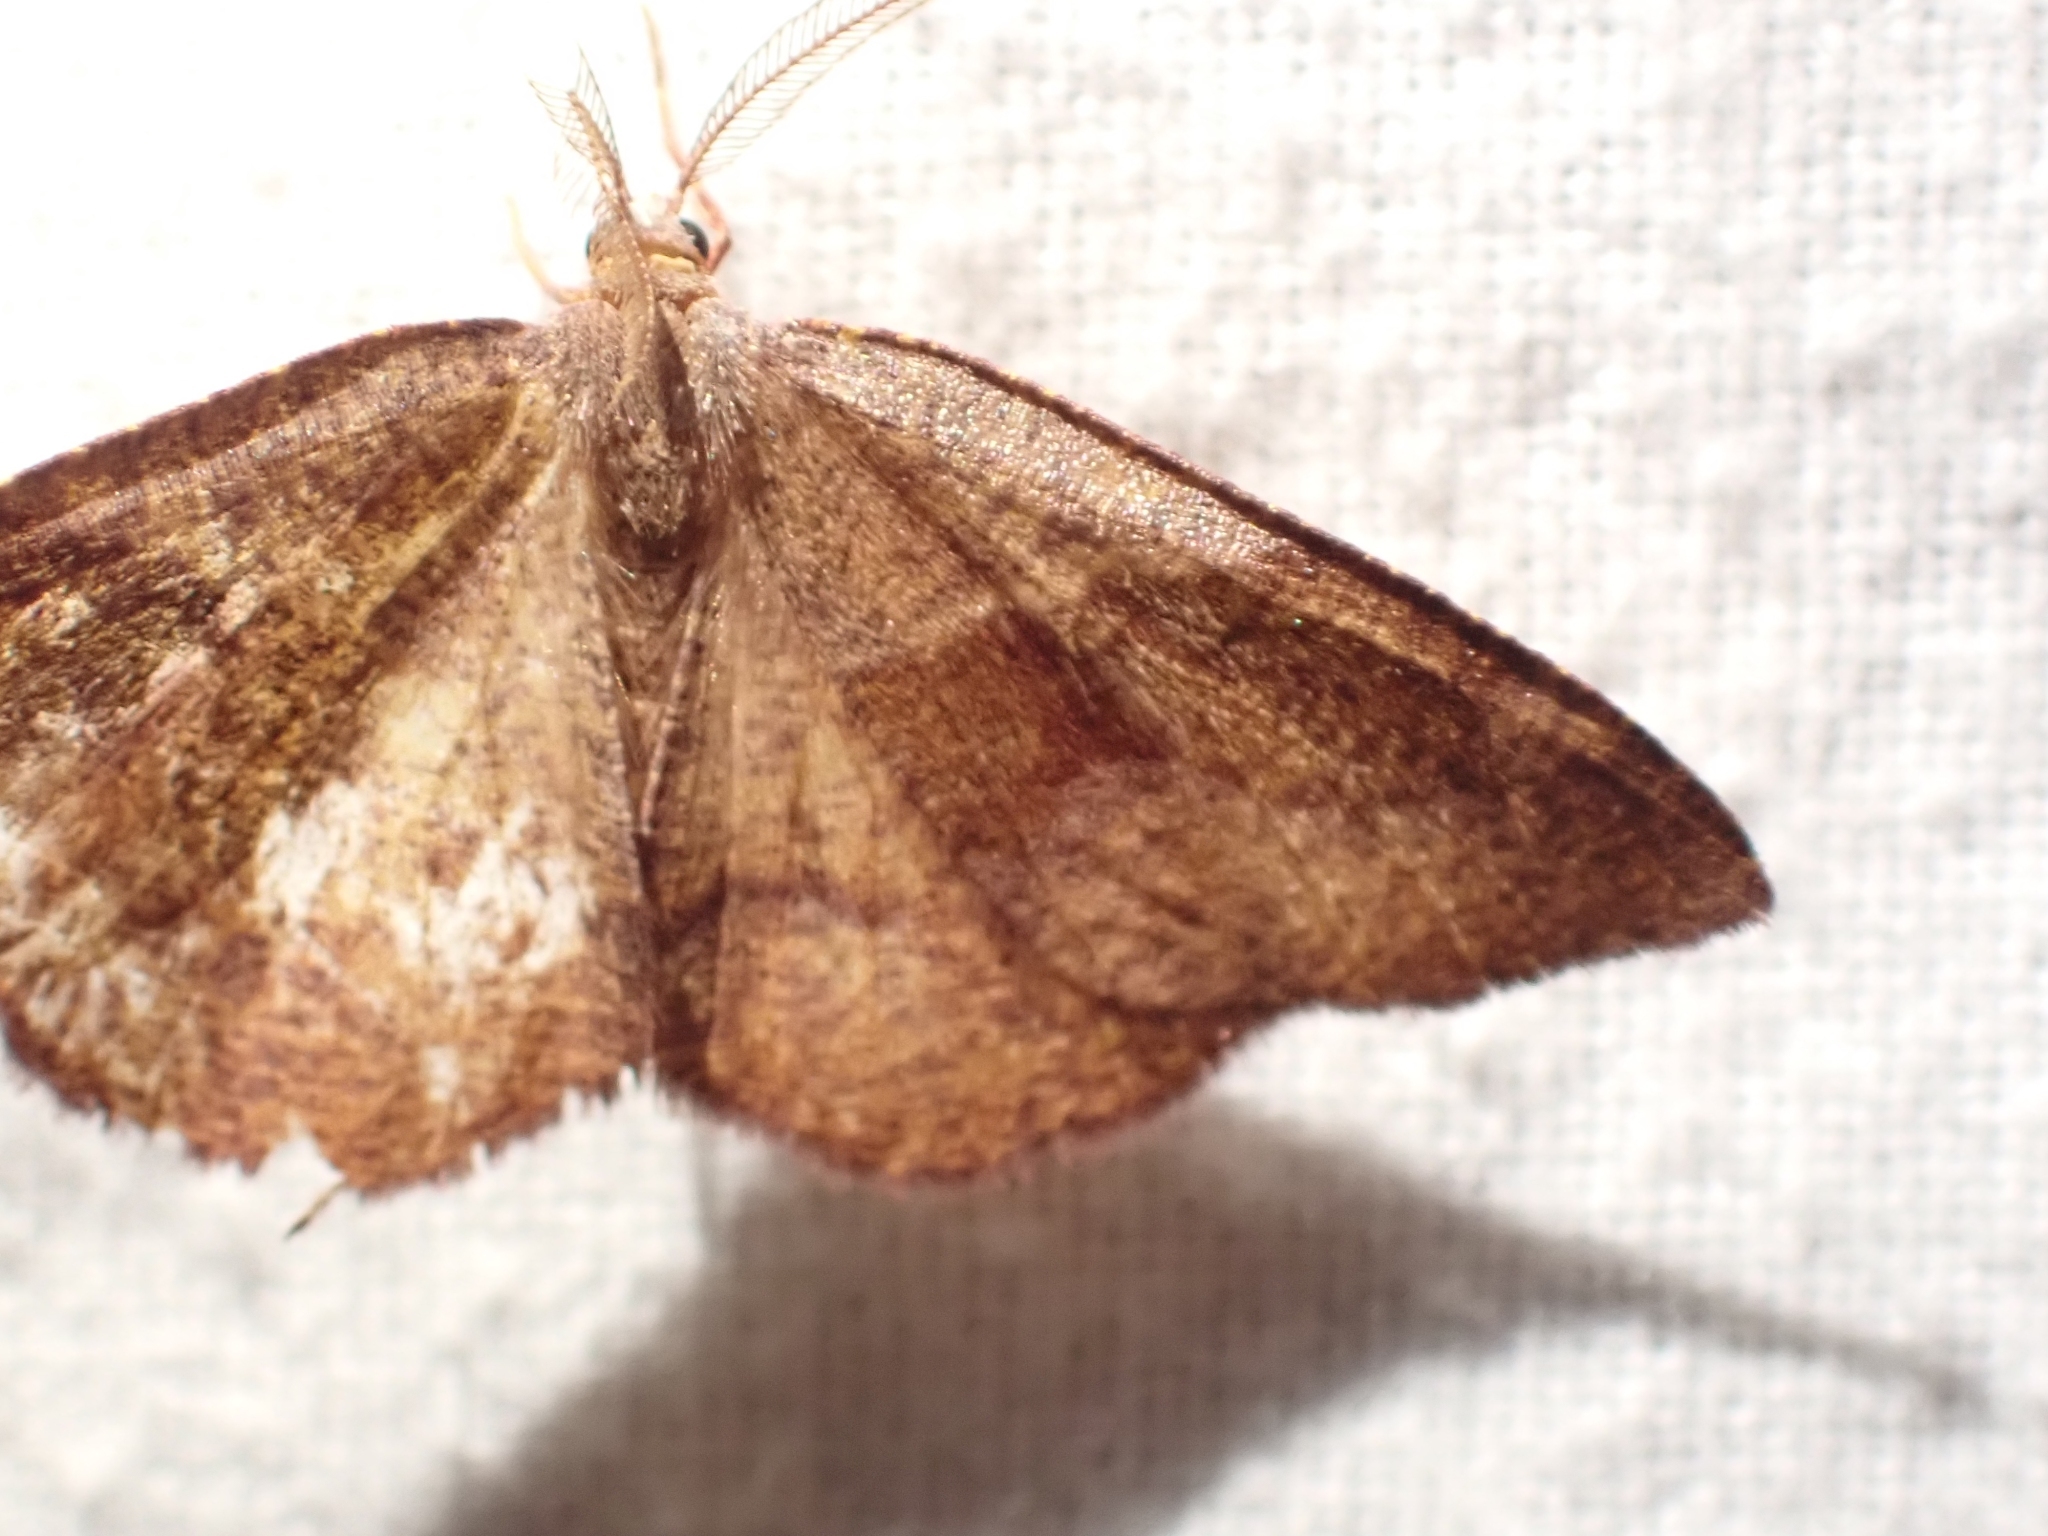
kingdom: Animalia
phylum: Arthropoda
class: Insecta
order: Lepidoptera
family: Geometridae
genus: Plagodis
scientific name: Plagodis pulveraria
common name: Barred umber
